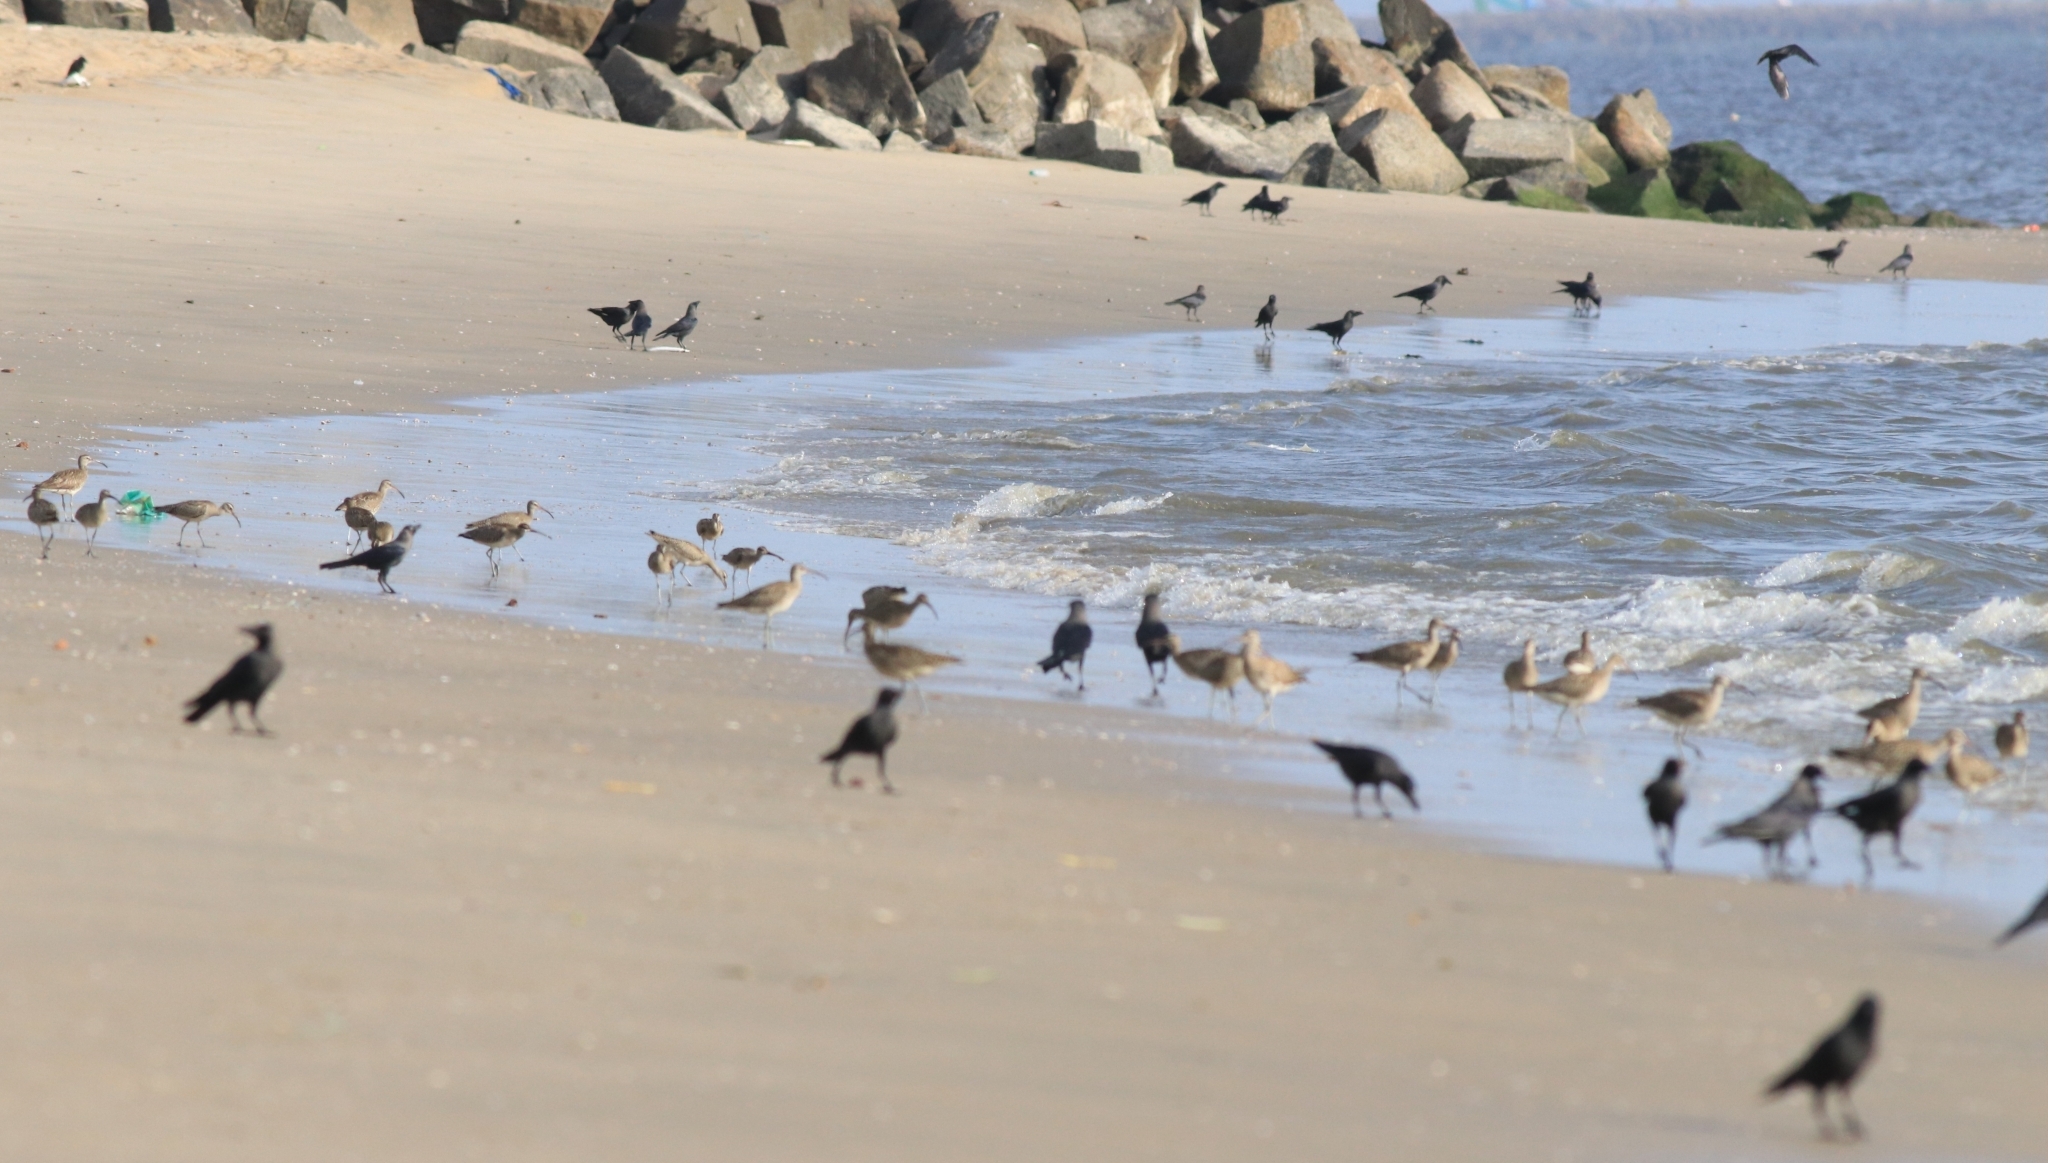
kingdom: Animalia
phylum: Chordata
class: Aves
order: Passeriformes
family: Corvidae
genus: Corvus
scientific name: Corvus splendens
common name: House crow
